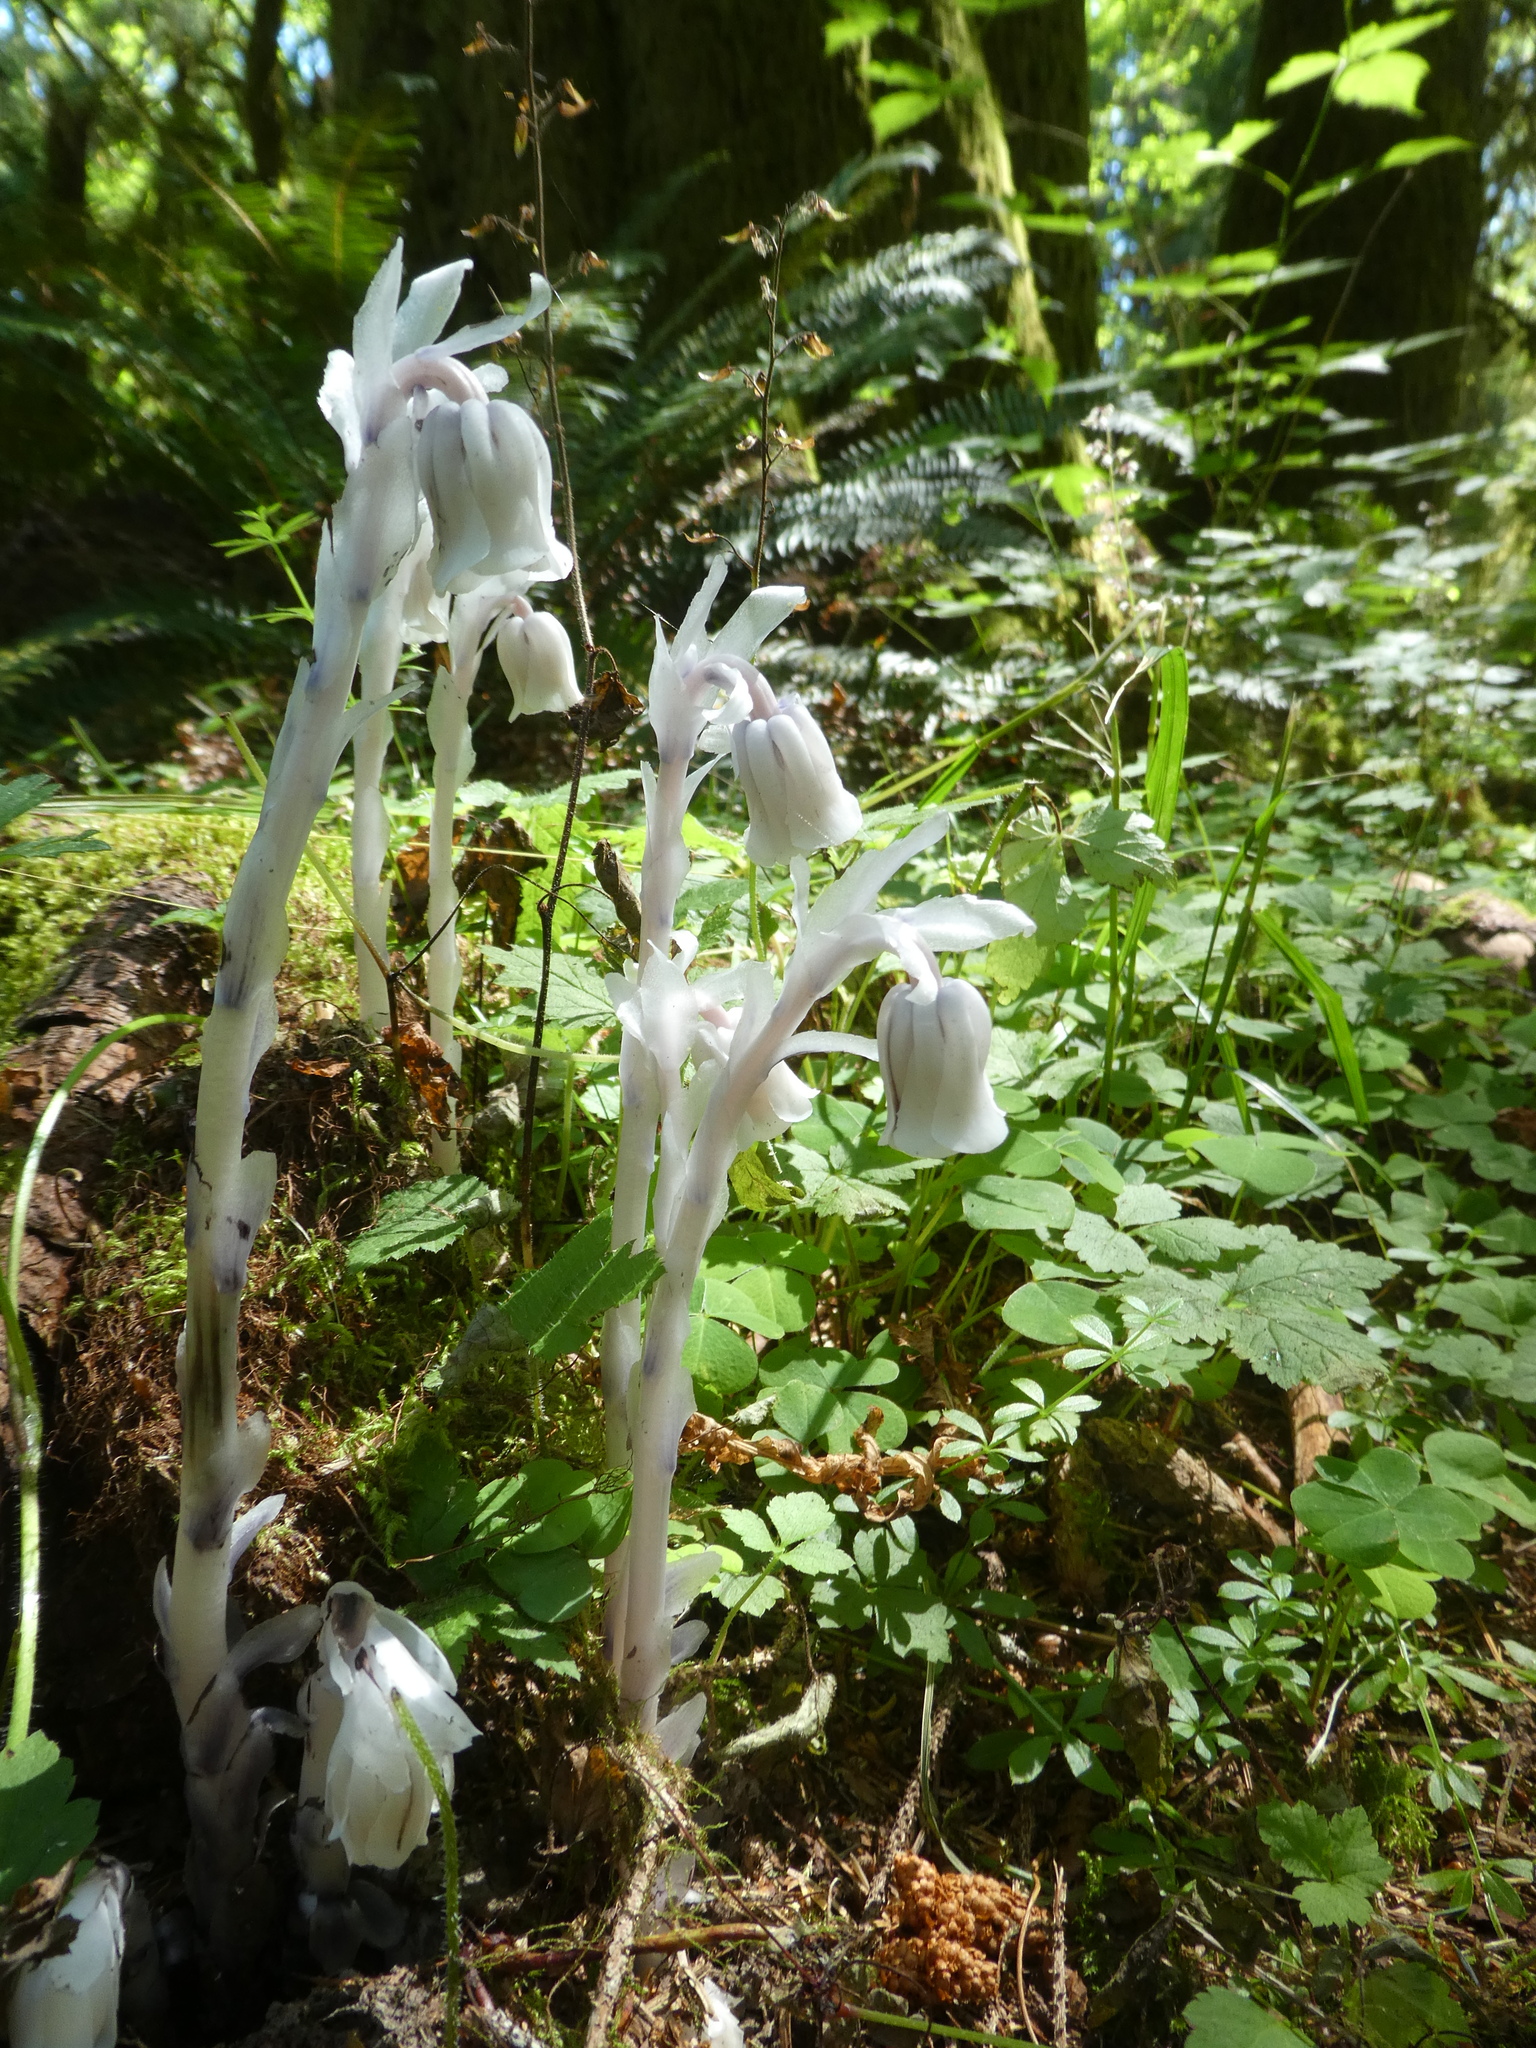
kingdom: Plantae
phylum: Tracheophyta
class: Magnoliopsida
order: Ericales
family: Ericaceae
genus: Monotropa
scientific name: Monotropa uniflora
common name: Convulsion root
